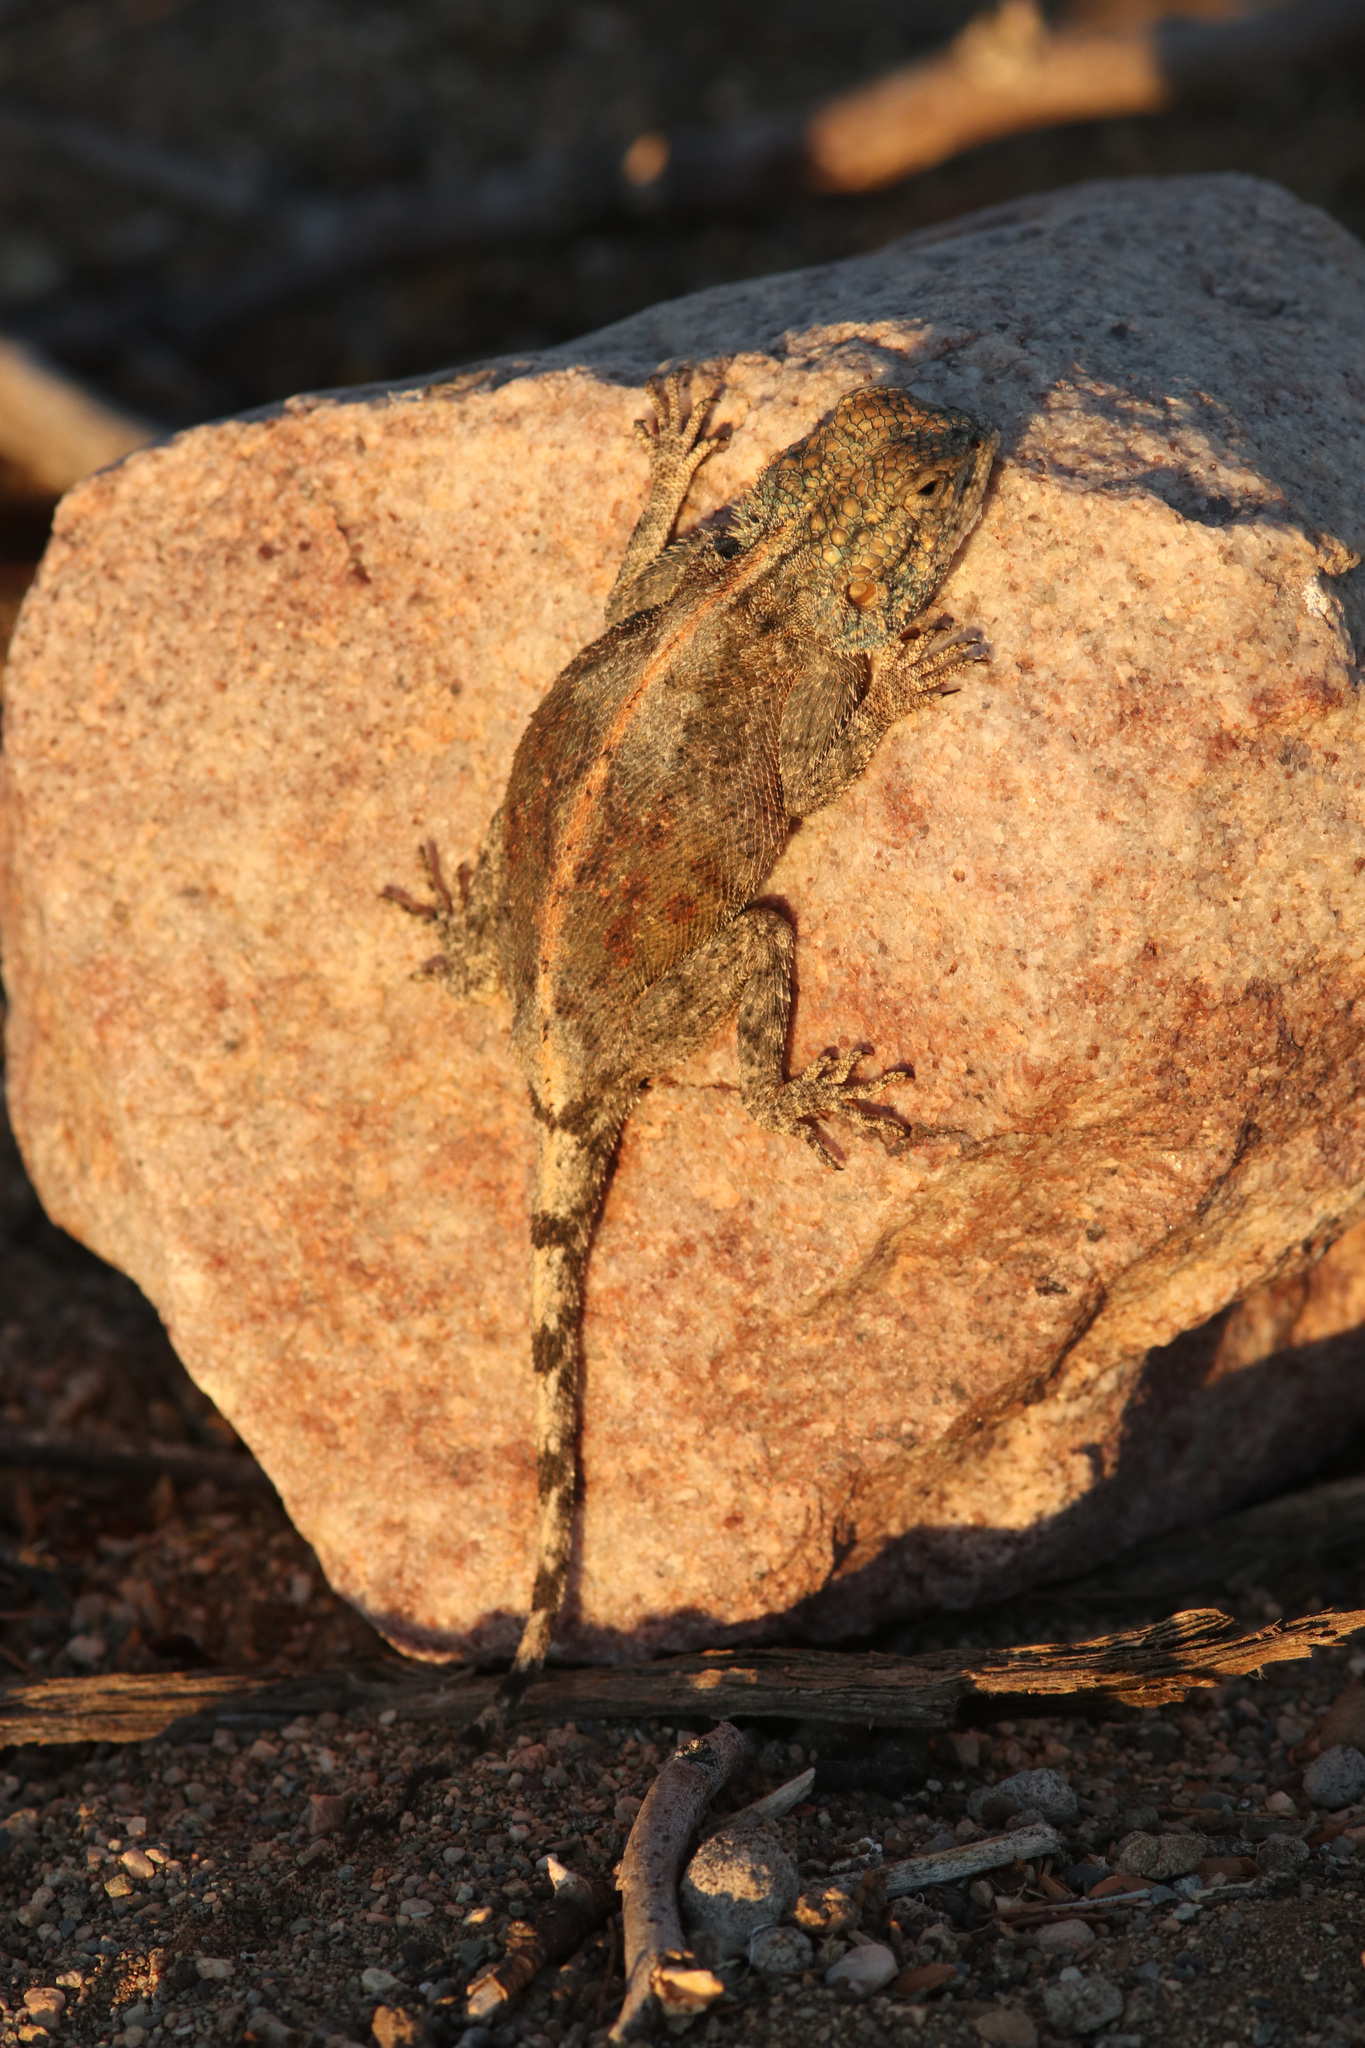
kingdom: Animalia
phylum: Chordata
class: Squamata
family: Agamidae
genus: Agama
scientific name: Agama anchietae
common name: Anchieta's agama
